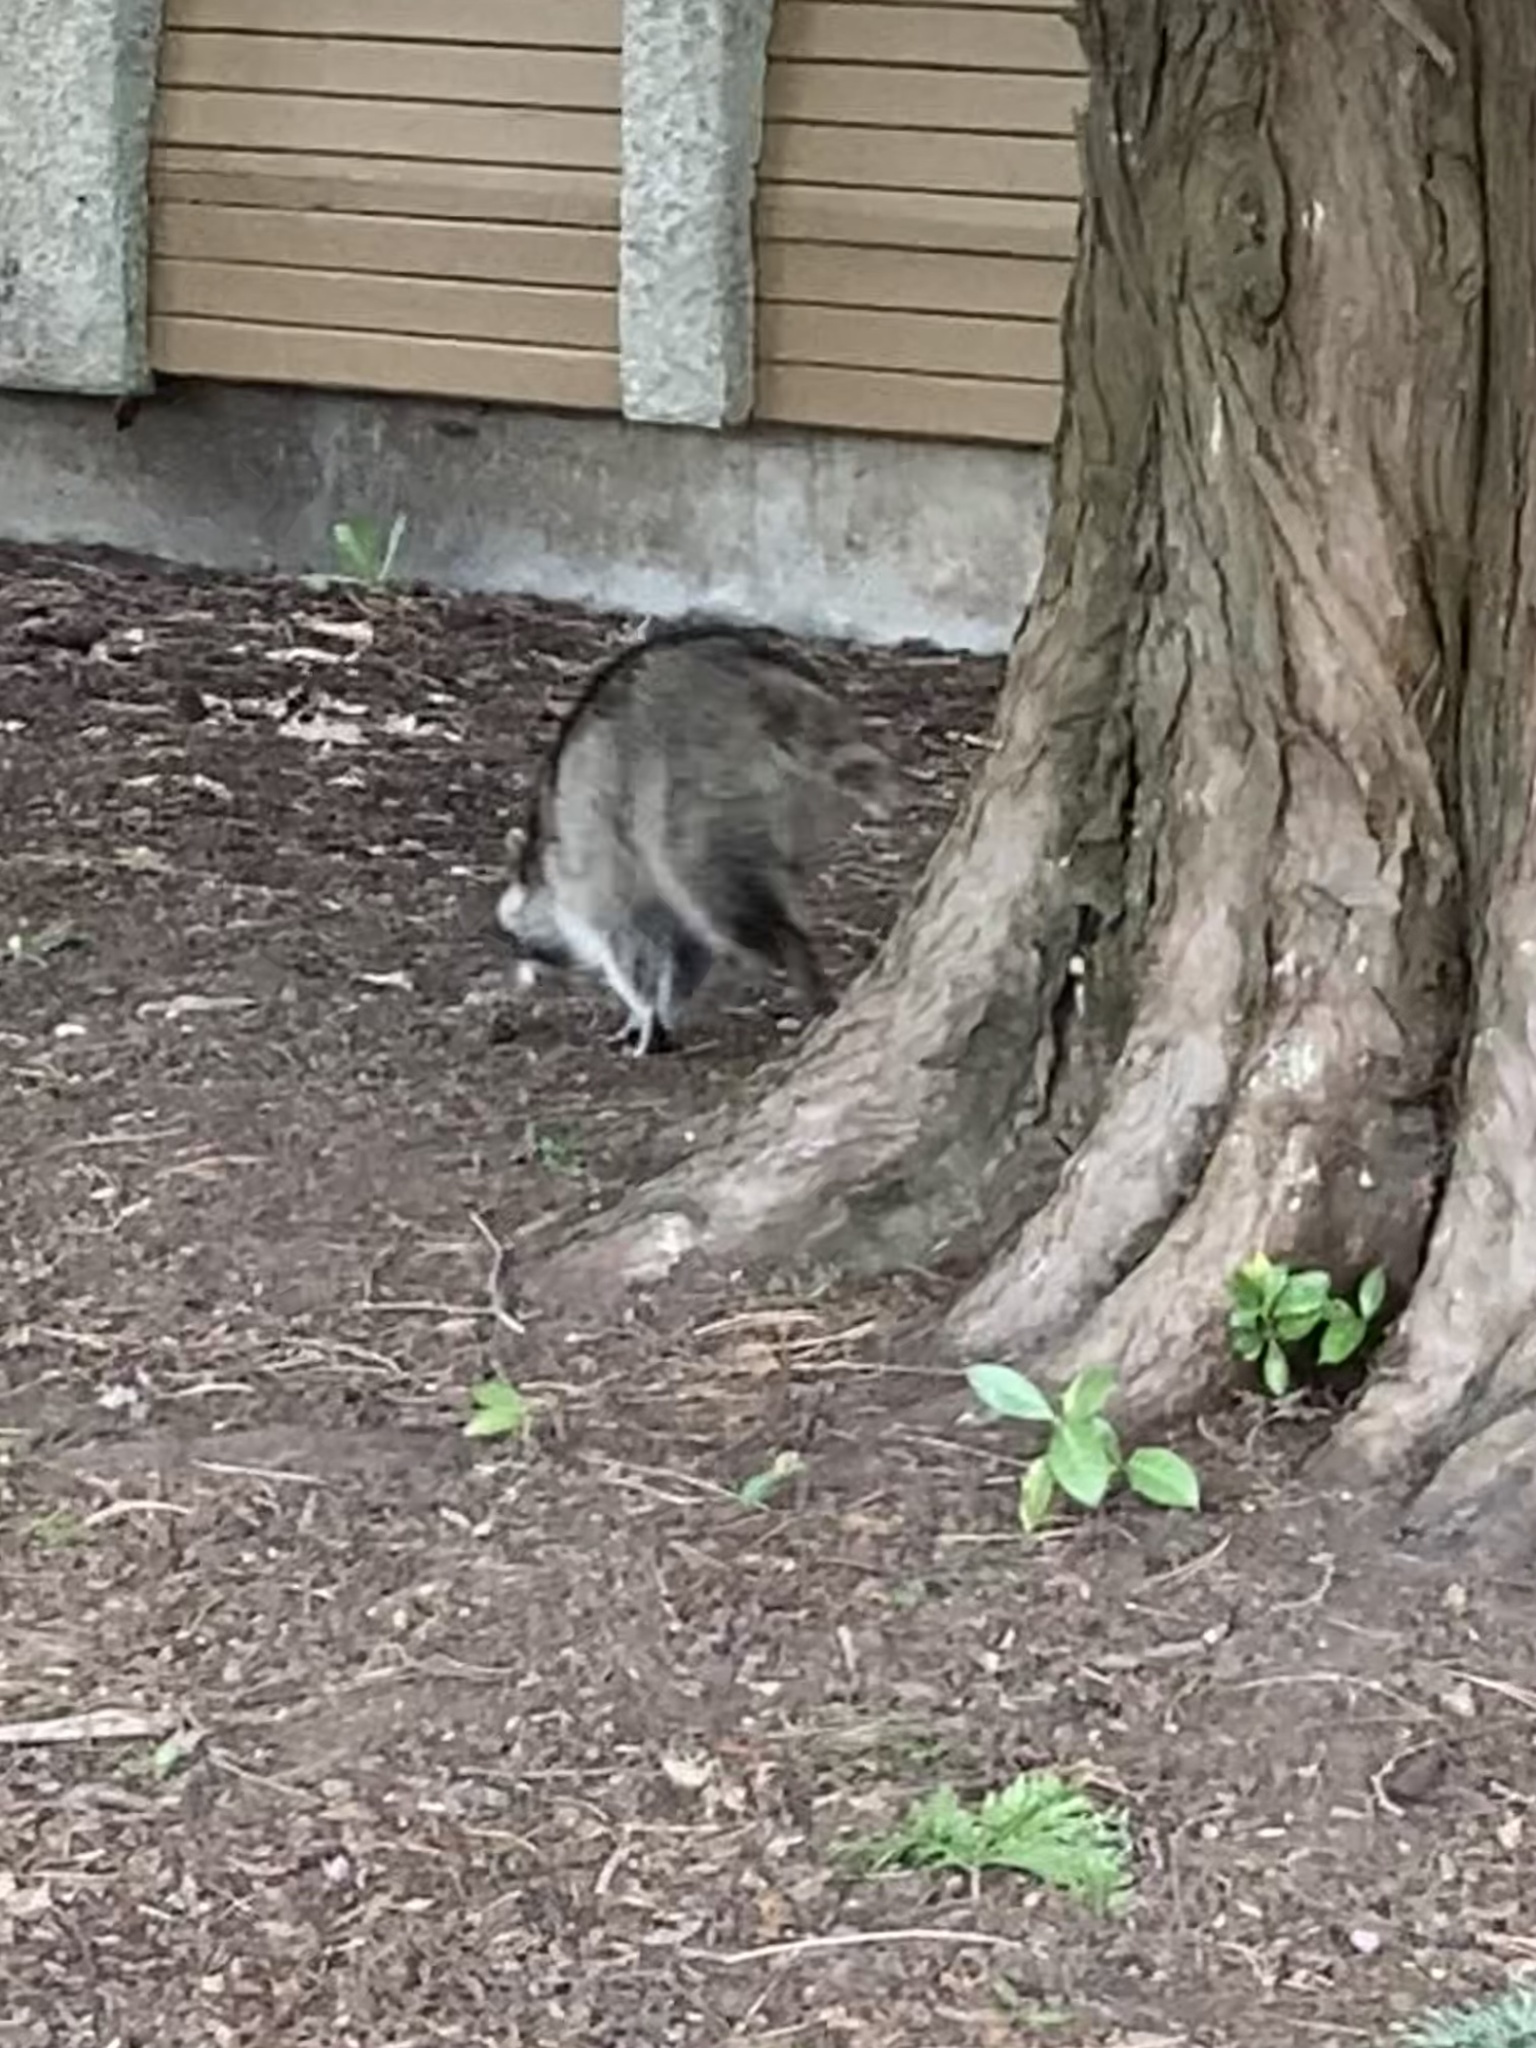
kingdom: Animalia
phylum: Chordata
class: Mammalia
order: Carnivora
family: Procyonidae
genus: Procyon
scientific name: Procyon lotor
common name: Raccoon
